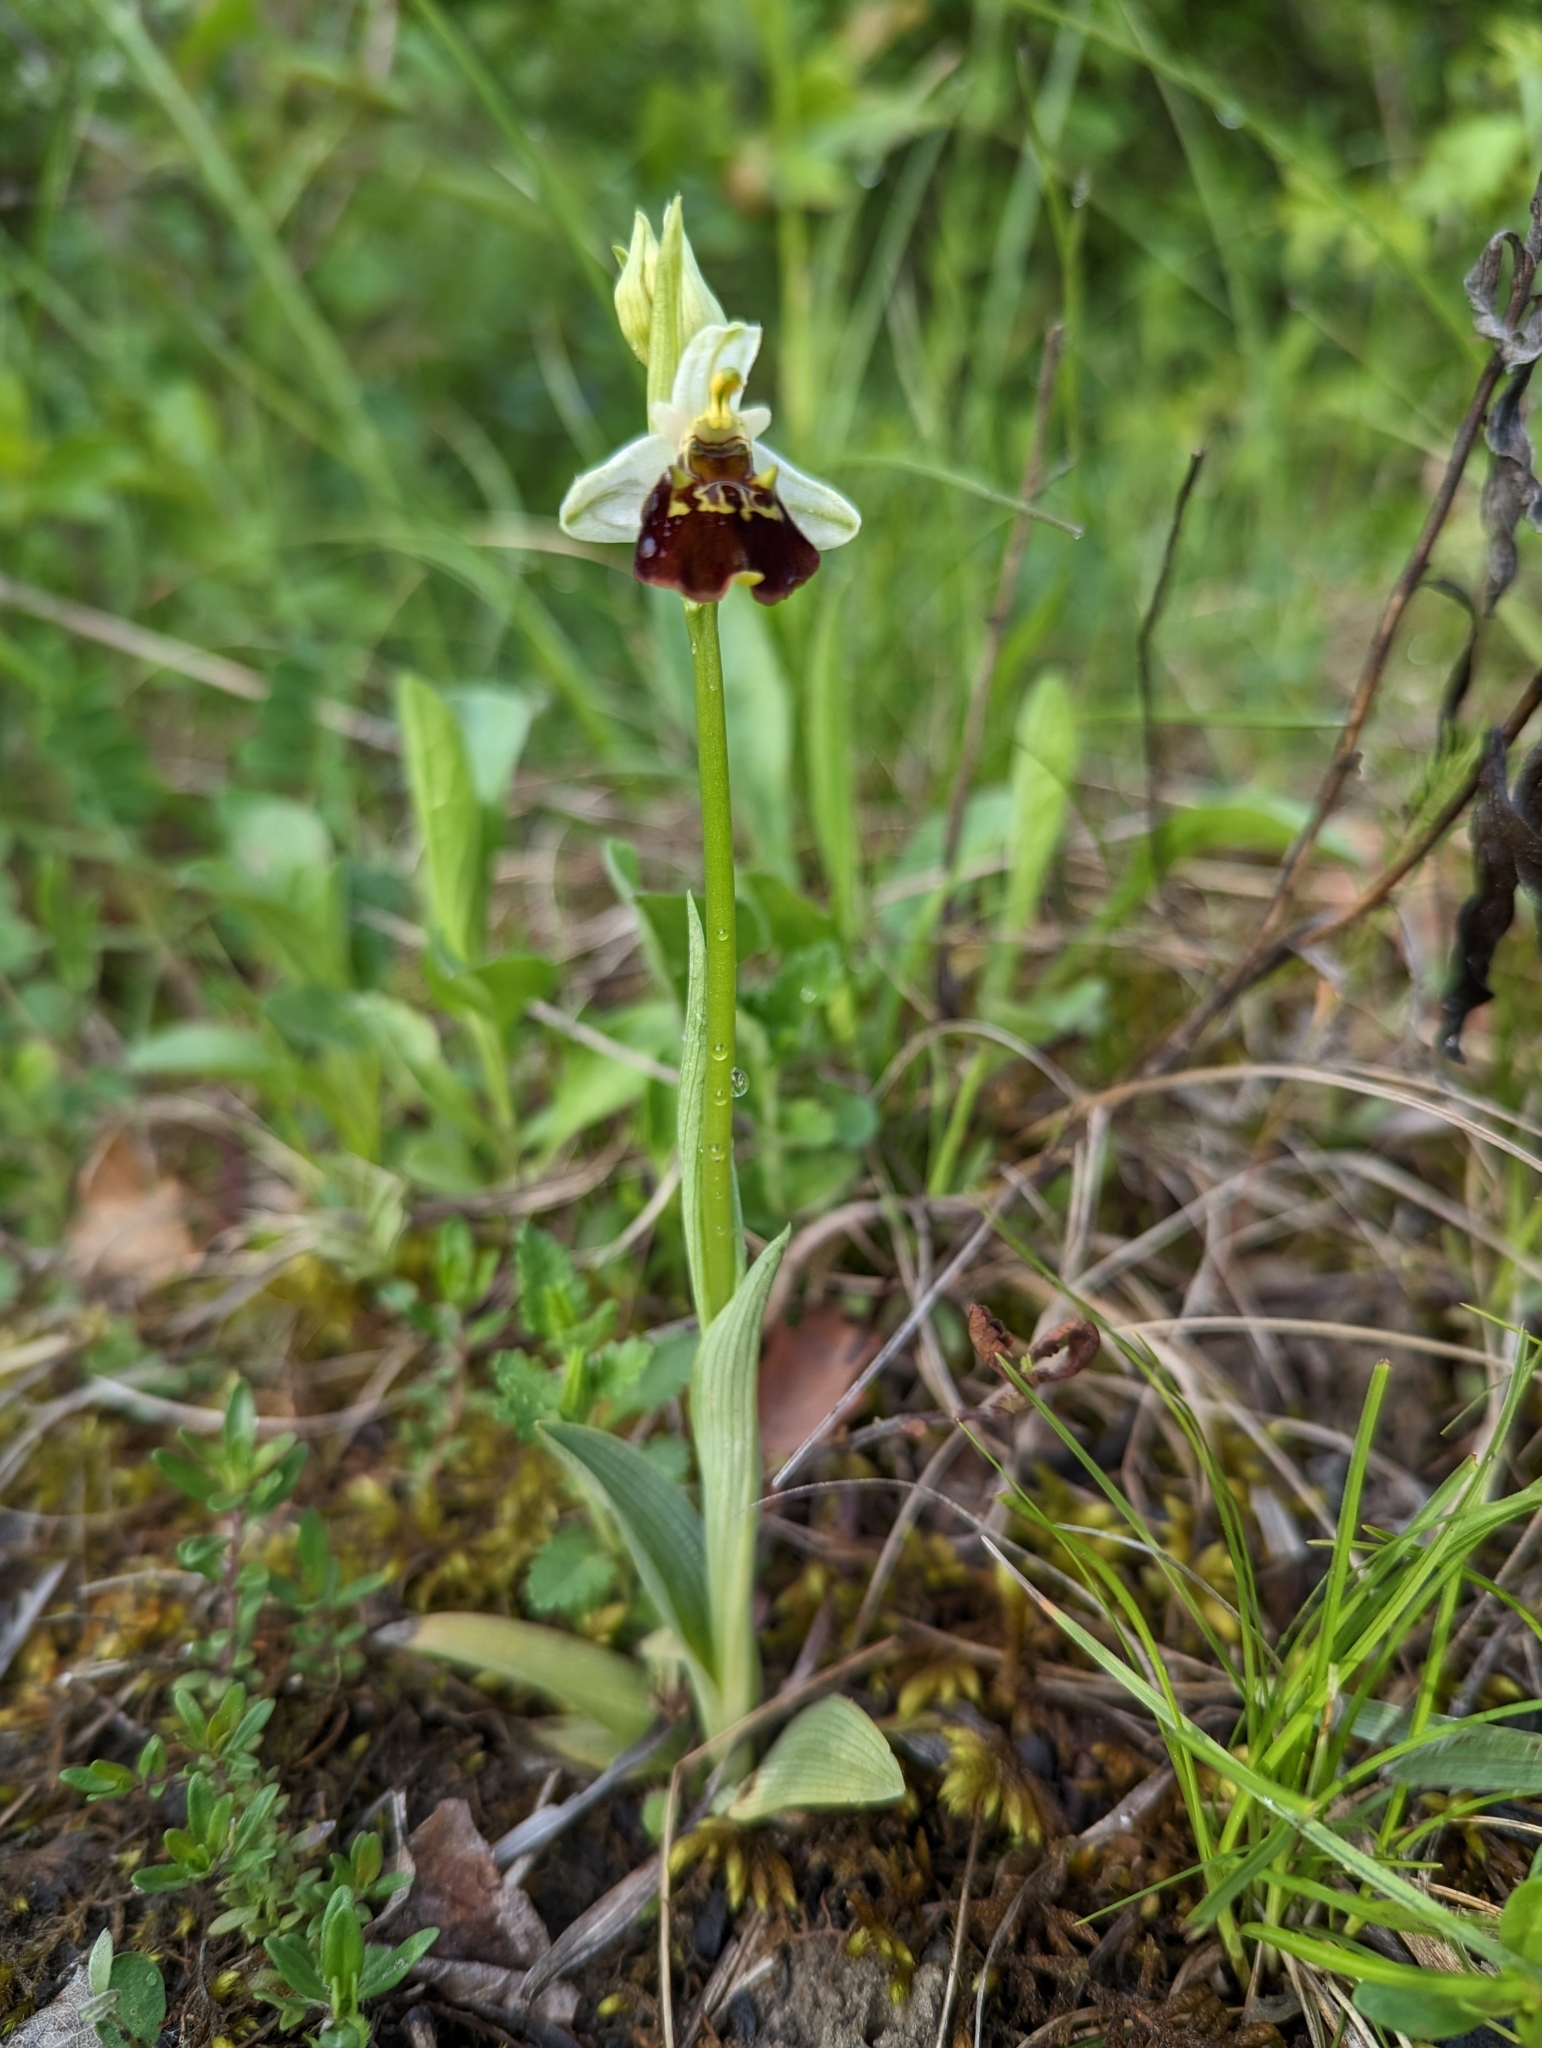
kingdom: Plantae
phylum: Tracheophyta
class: Liliopsida
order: Asparagales
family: Orchidaceae
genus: Ophrys
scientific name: Ophrys holosericea
